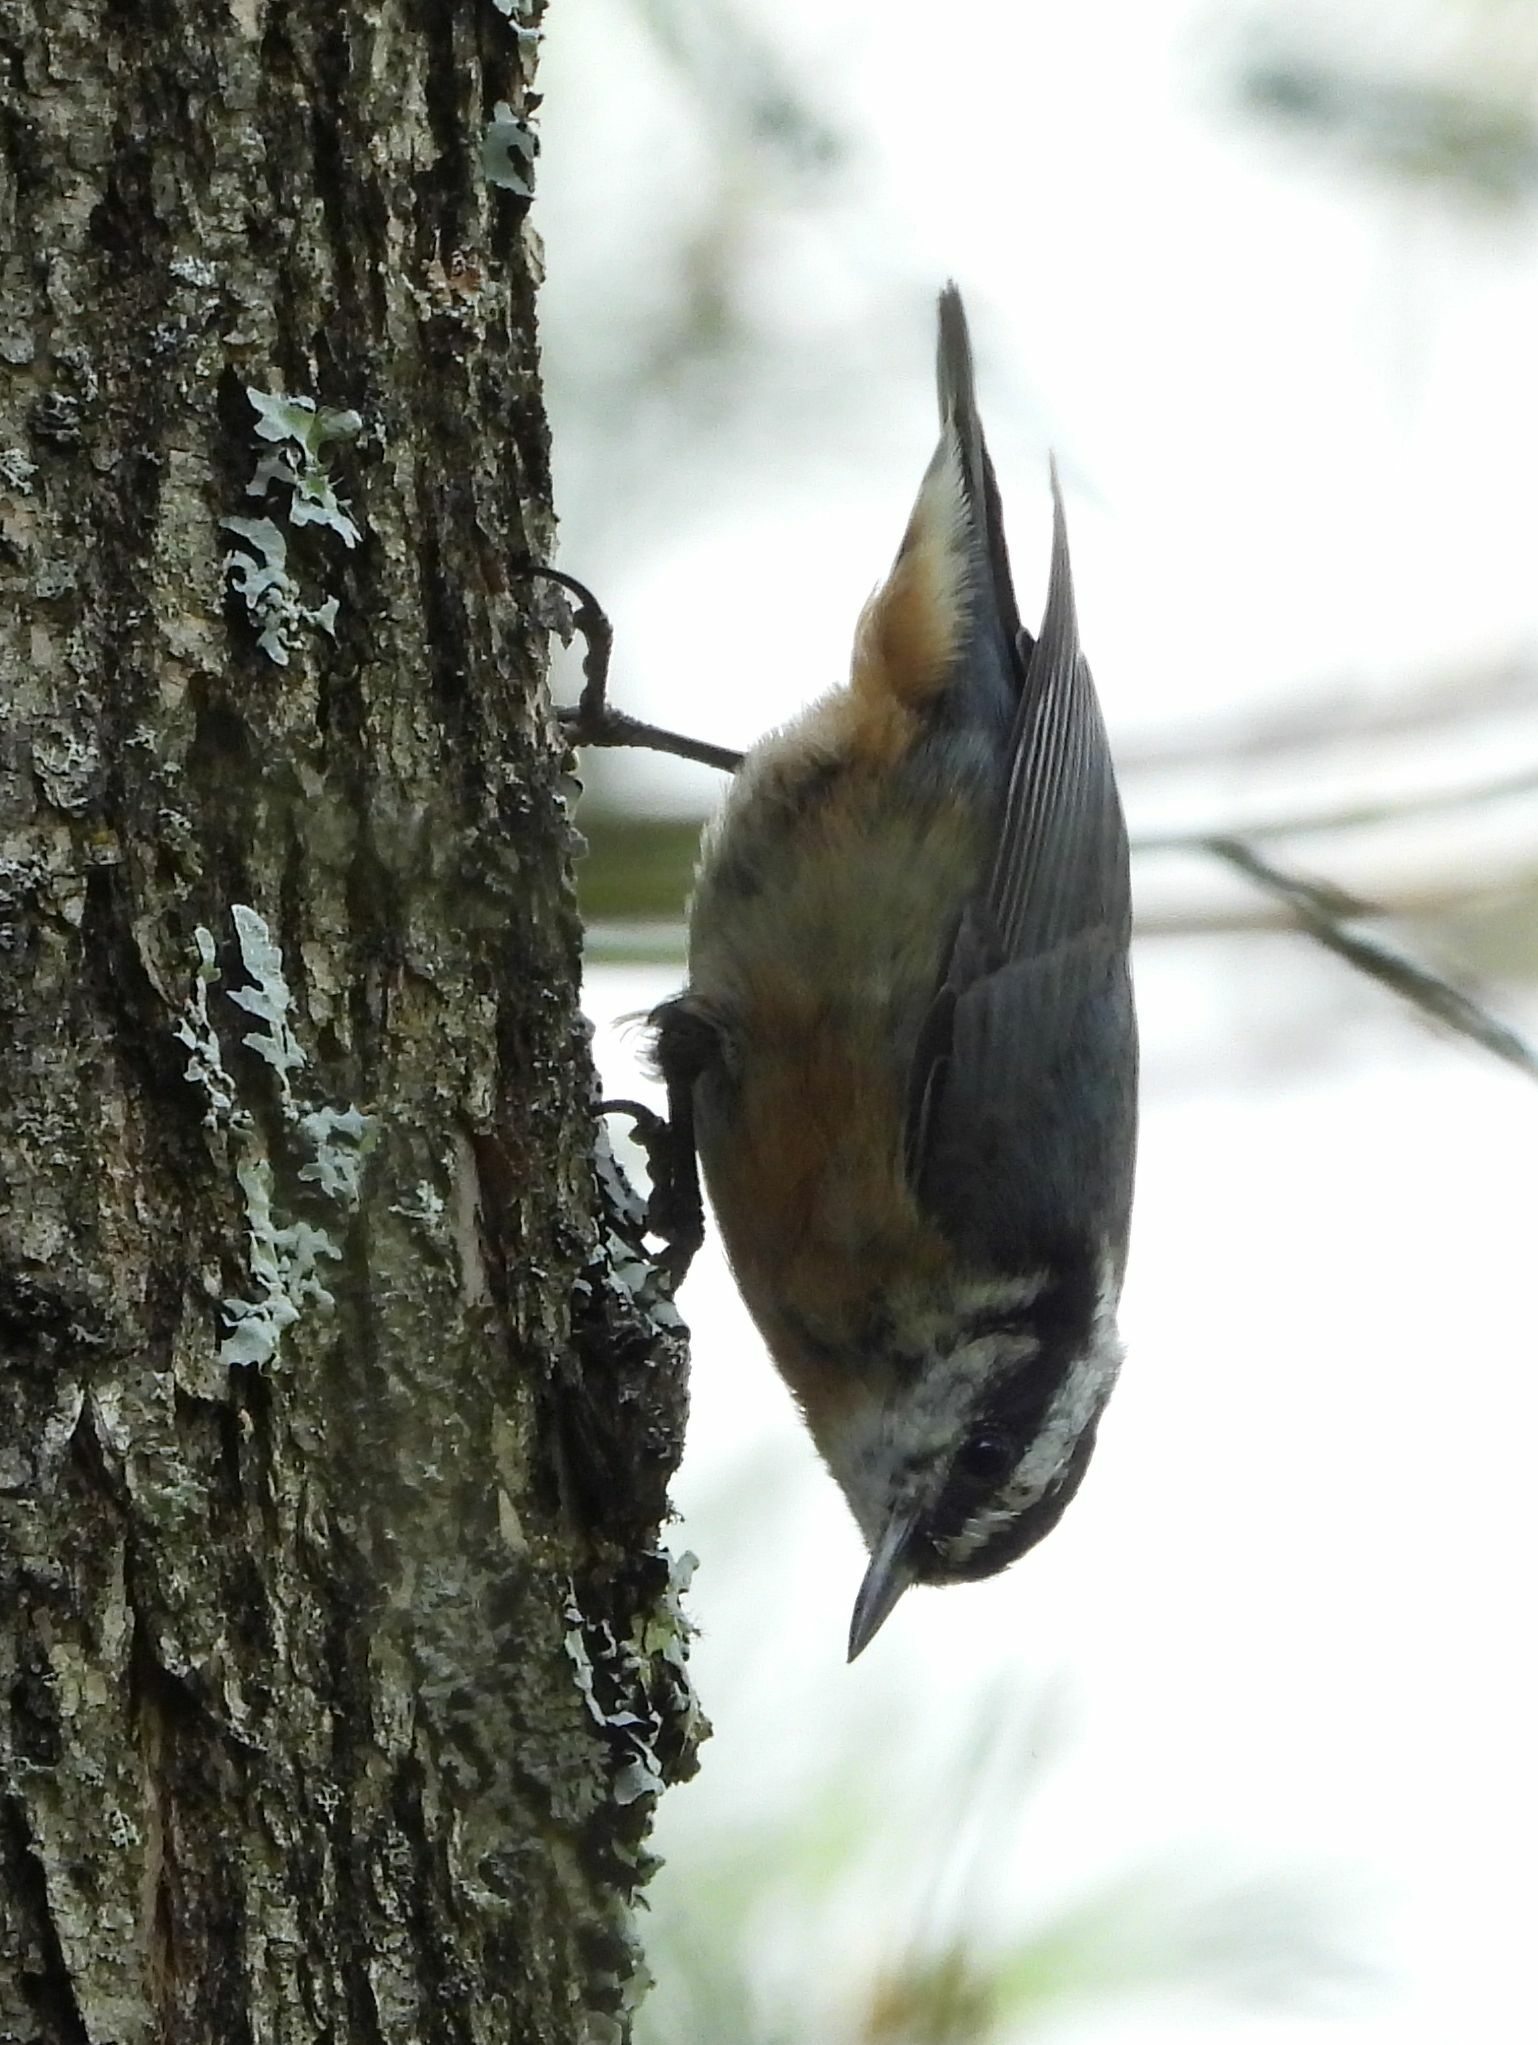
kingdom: Animalia
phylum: Chordata
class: Aves
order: Passeriformes
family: Sittidae
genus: Sitta
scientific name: Sitta canadensis
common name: Red-breasted nuthatch
